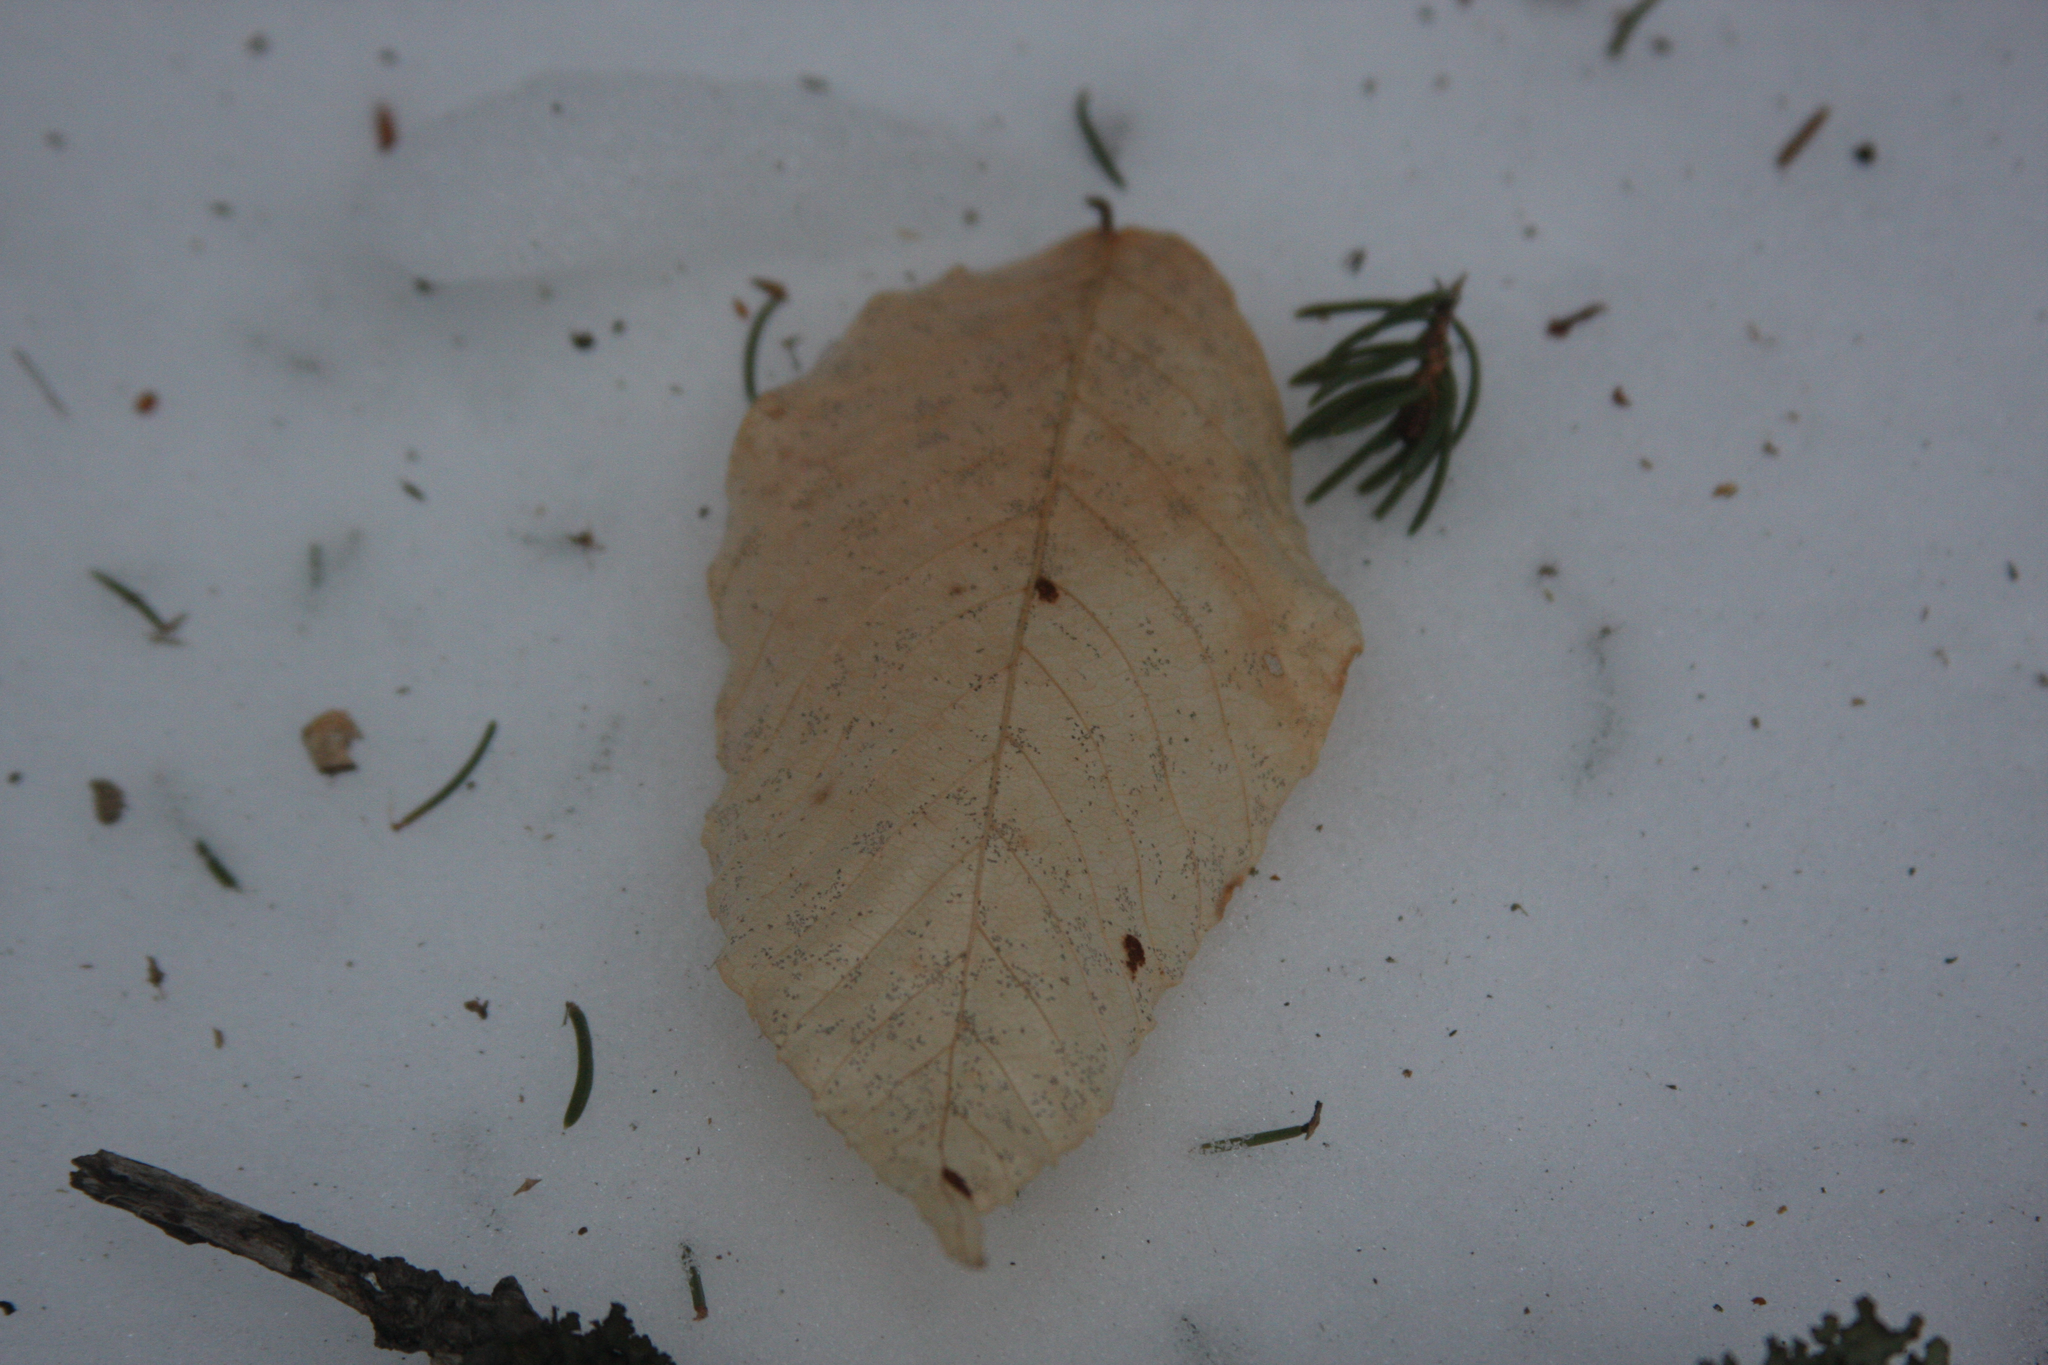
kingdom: Plantae
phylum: Tracheophyta
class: Magnoliopsida
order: Fagales
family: Fagaceae
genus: Fagus
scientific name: Fagus grandifolia
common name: American beech
